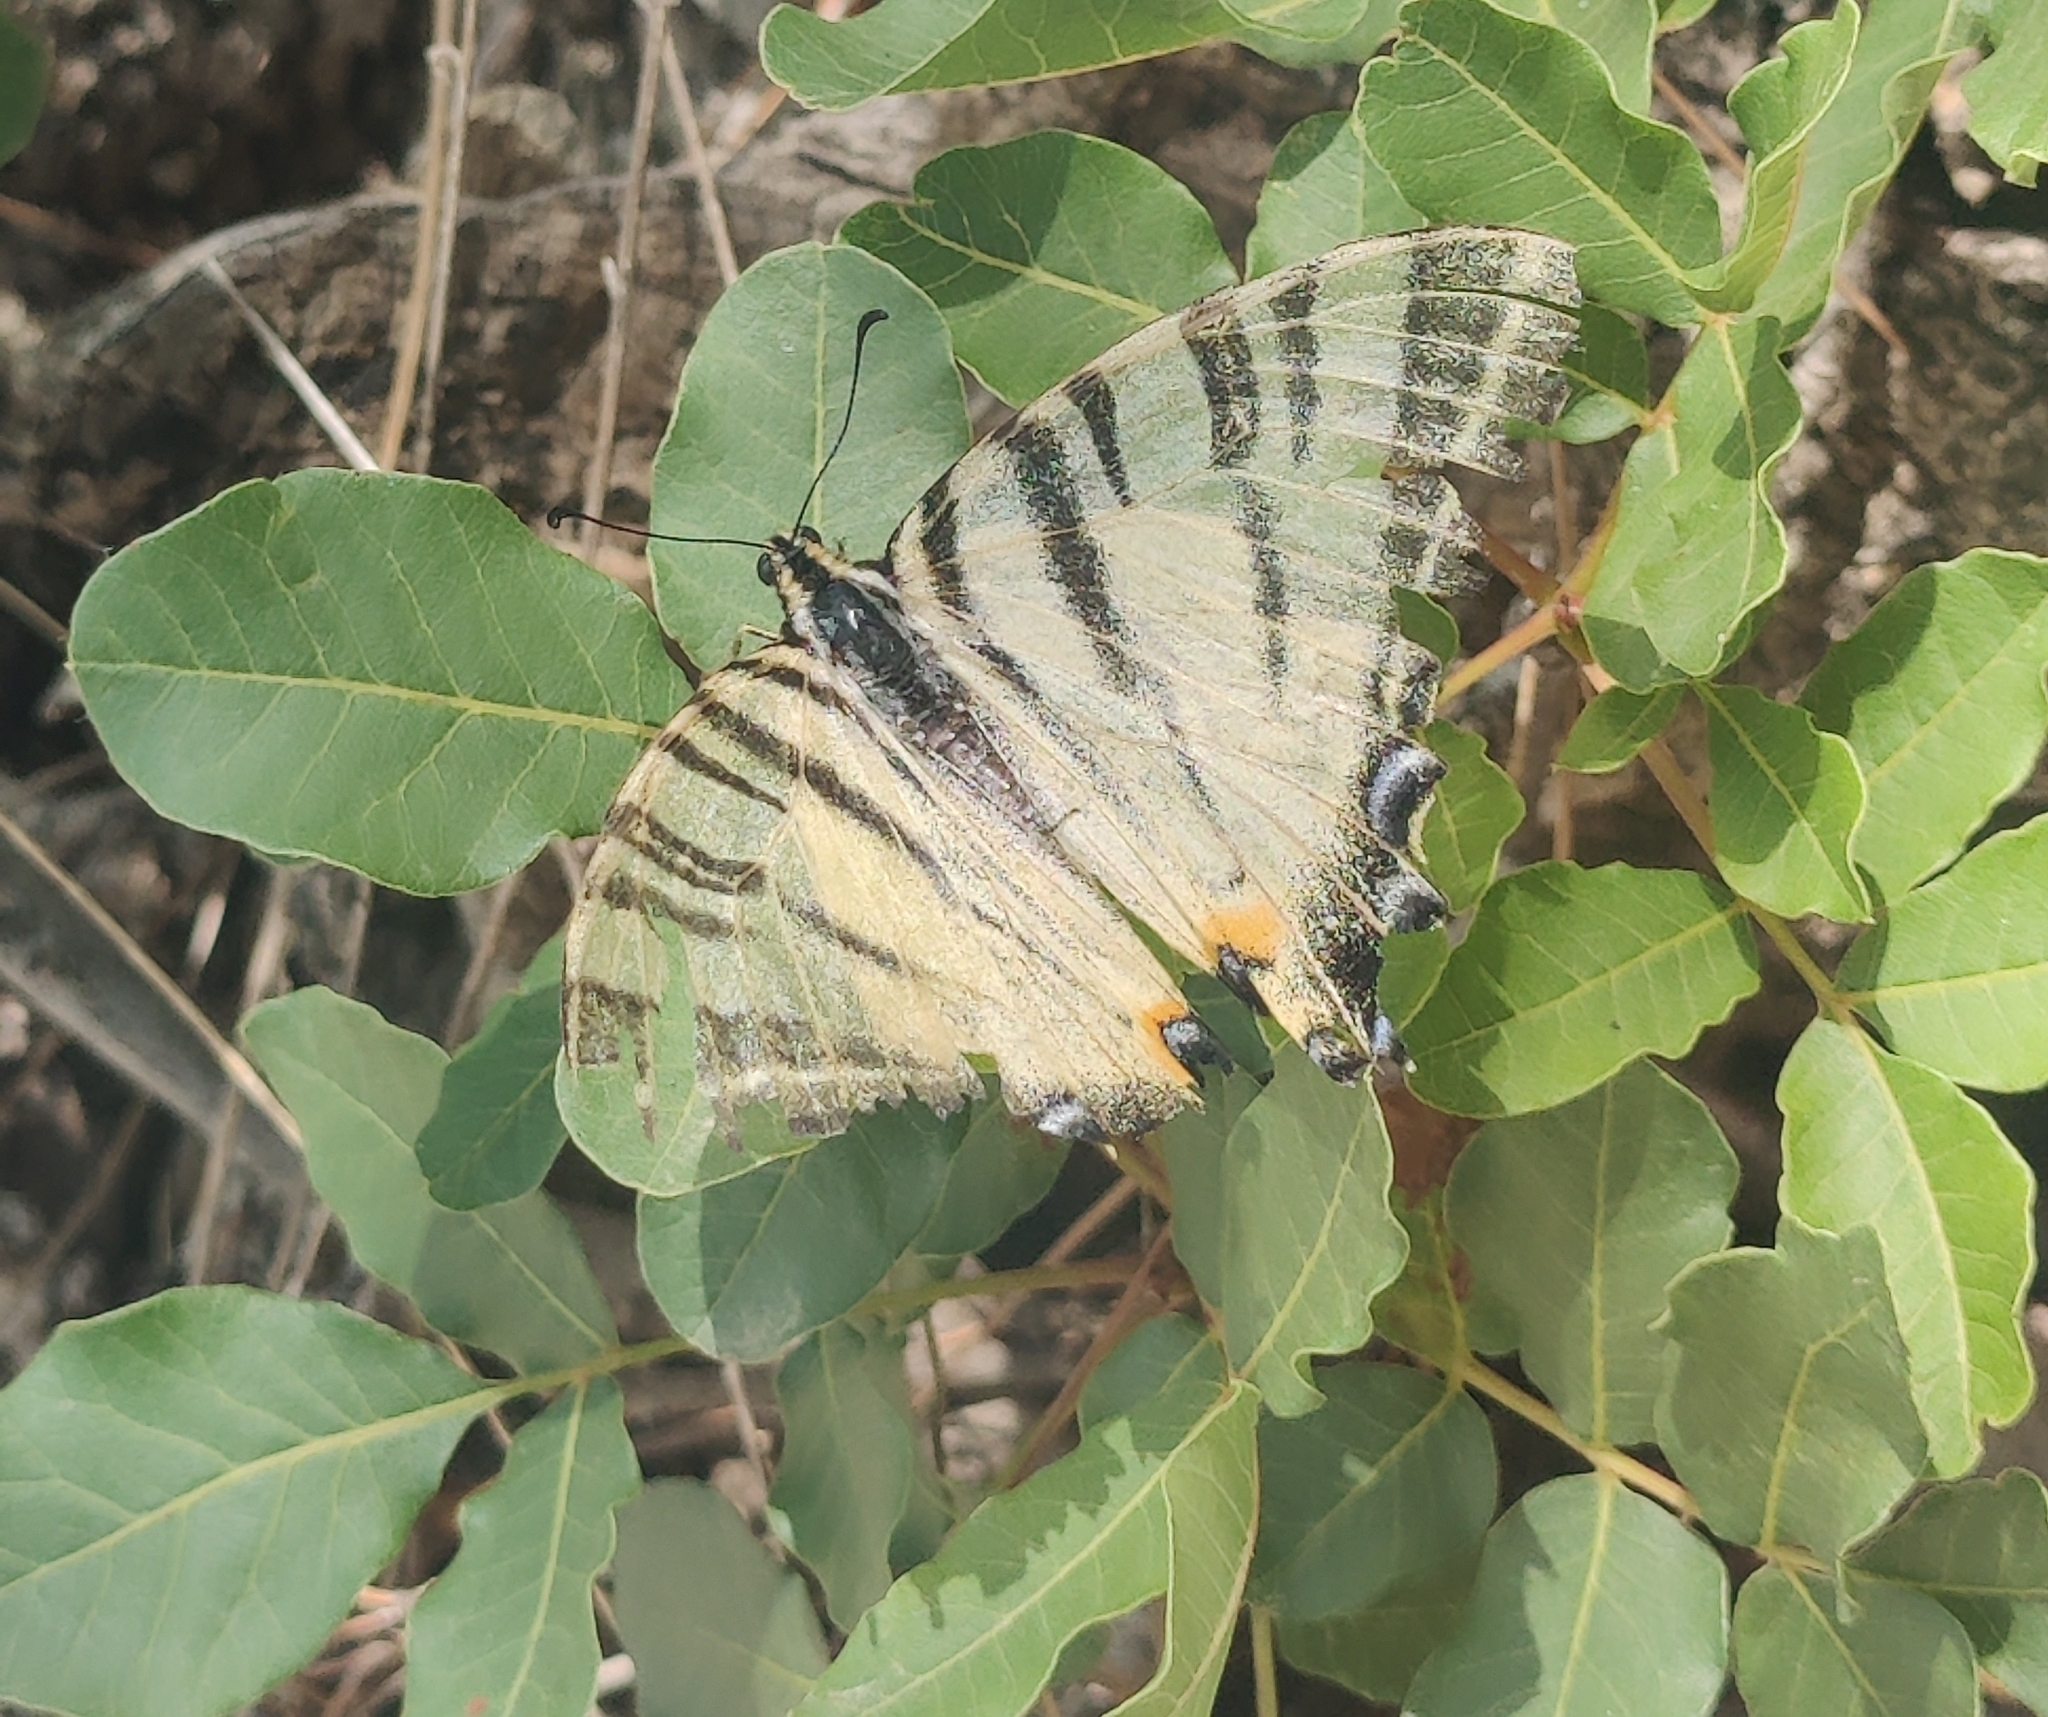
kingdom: Animalia
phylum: Arthropoda
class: Insecta
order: Lepidoptera
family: Papilionidae
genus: Iphiclides
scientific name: Iphiclides podalirius
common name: Scarce swallowtail
